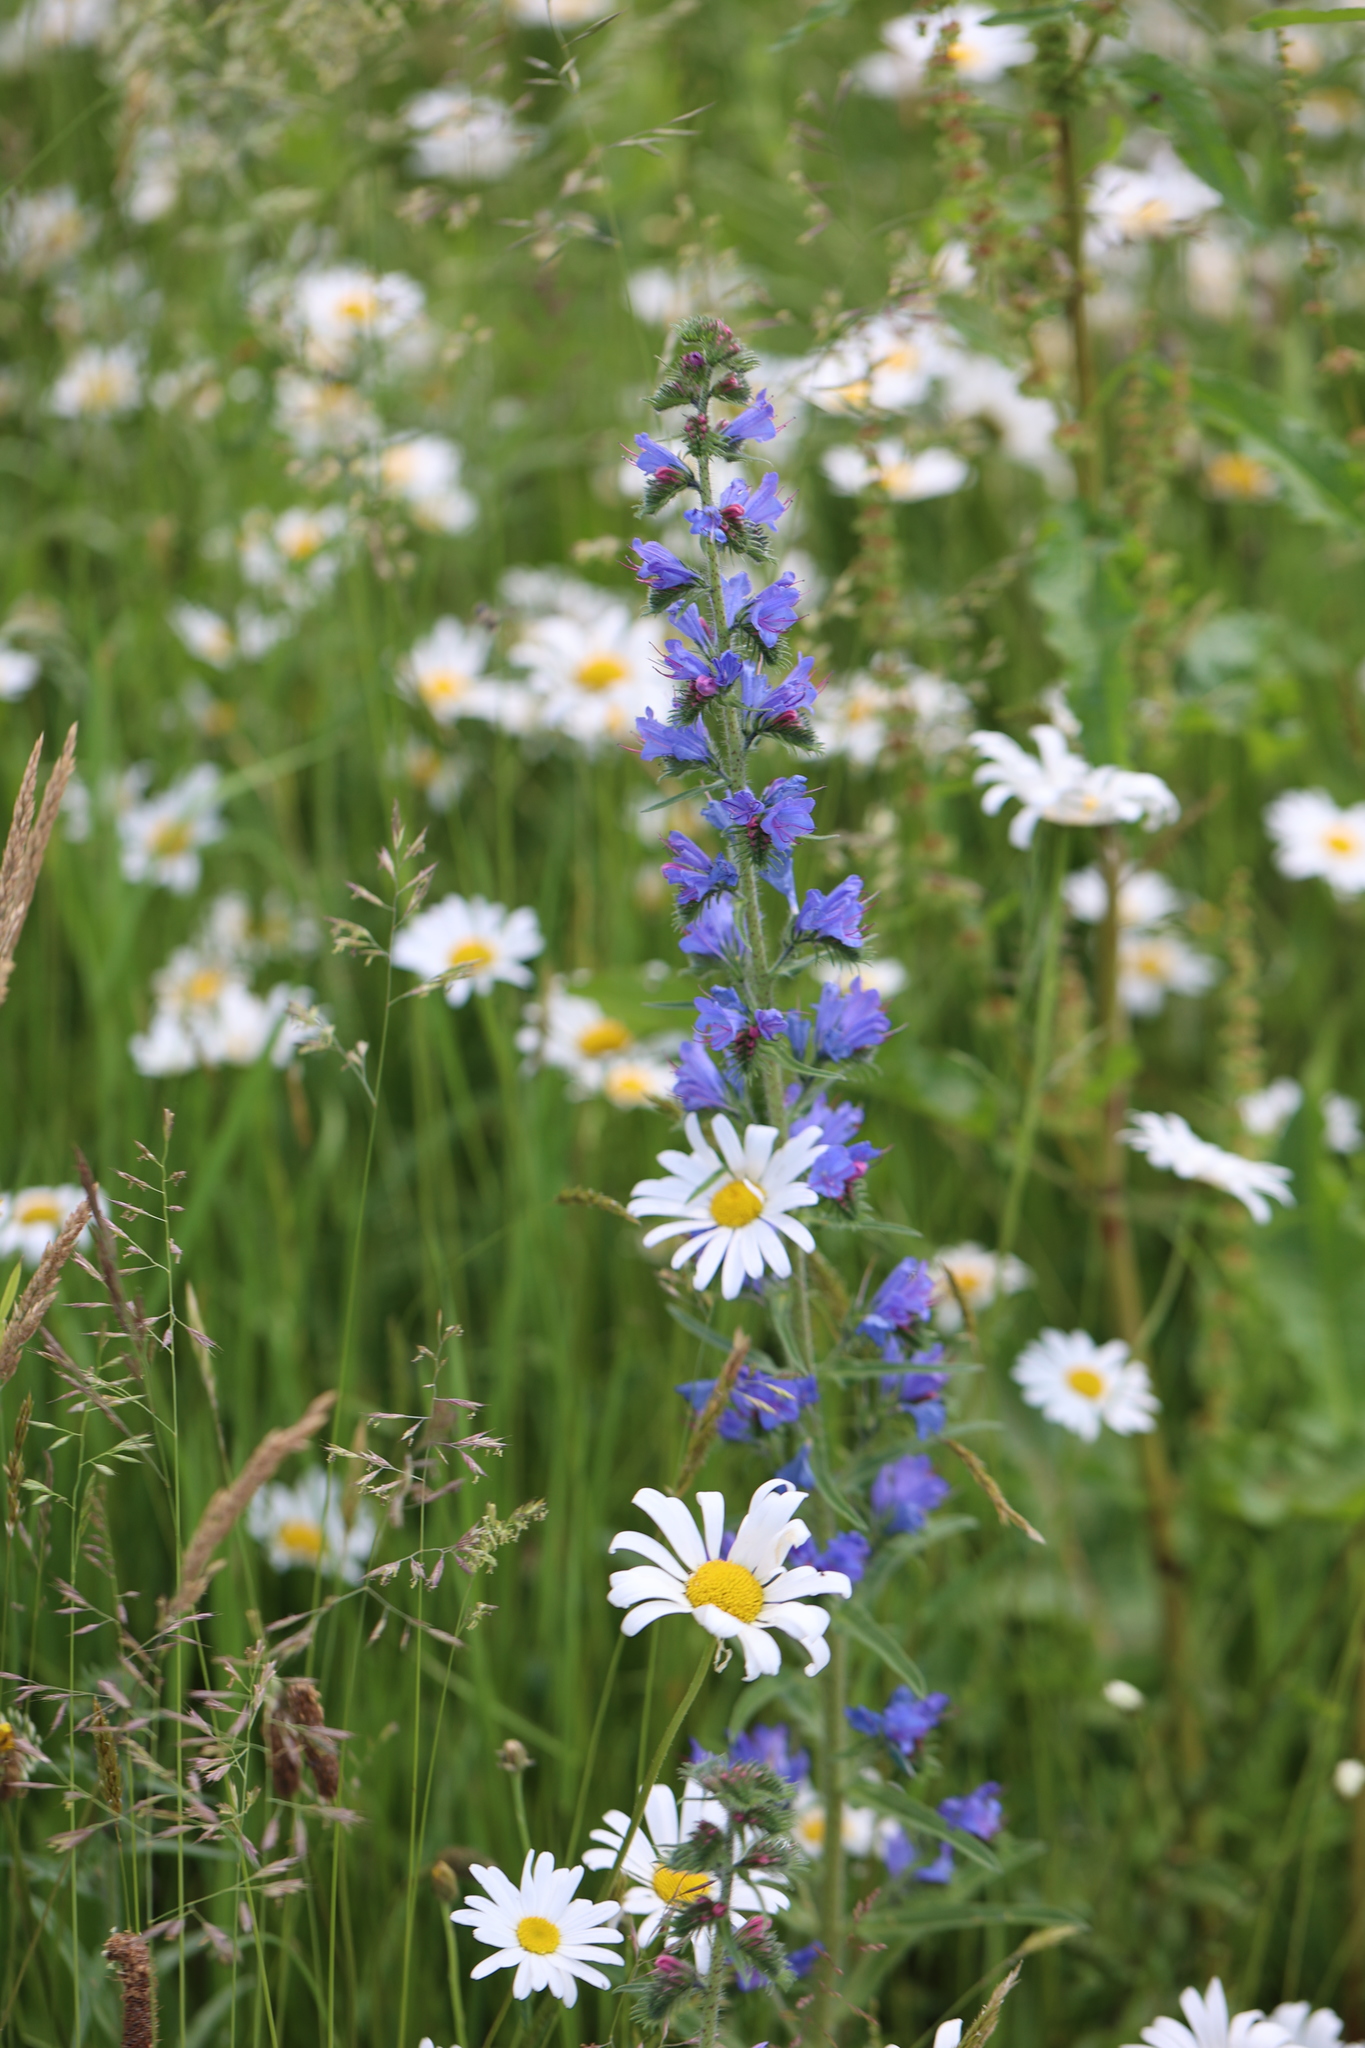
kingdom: Plantae
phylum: Tracheophyta
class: Magnoliopsida
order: Boraginales
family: Boraginaceae
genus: Echium
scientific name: Echium vulgare
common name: Common viper's bugloss
